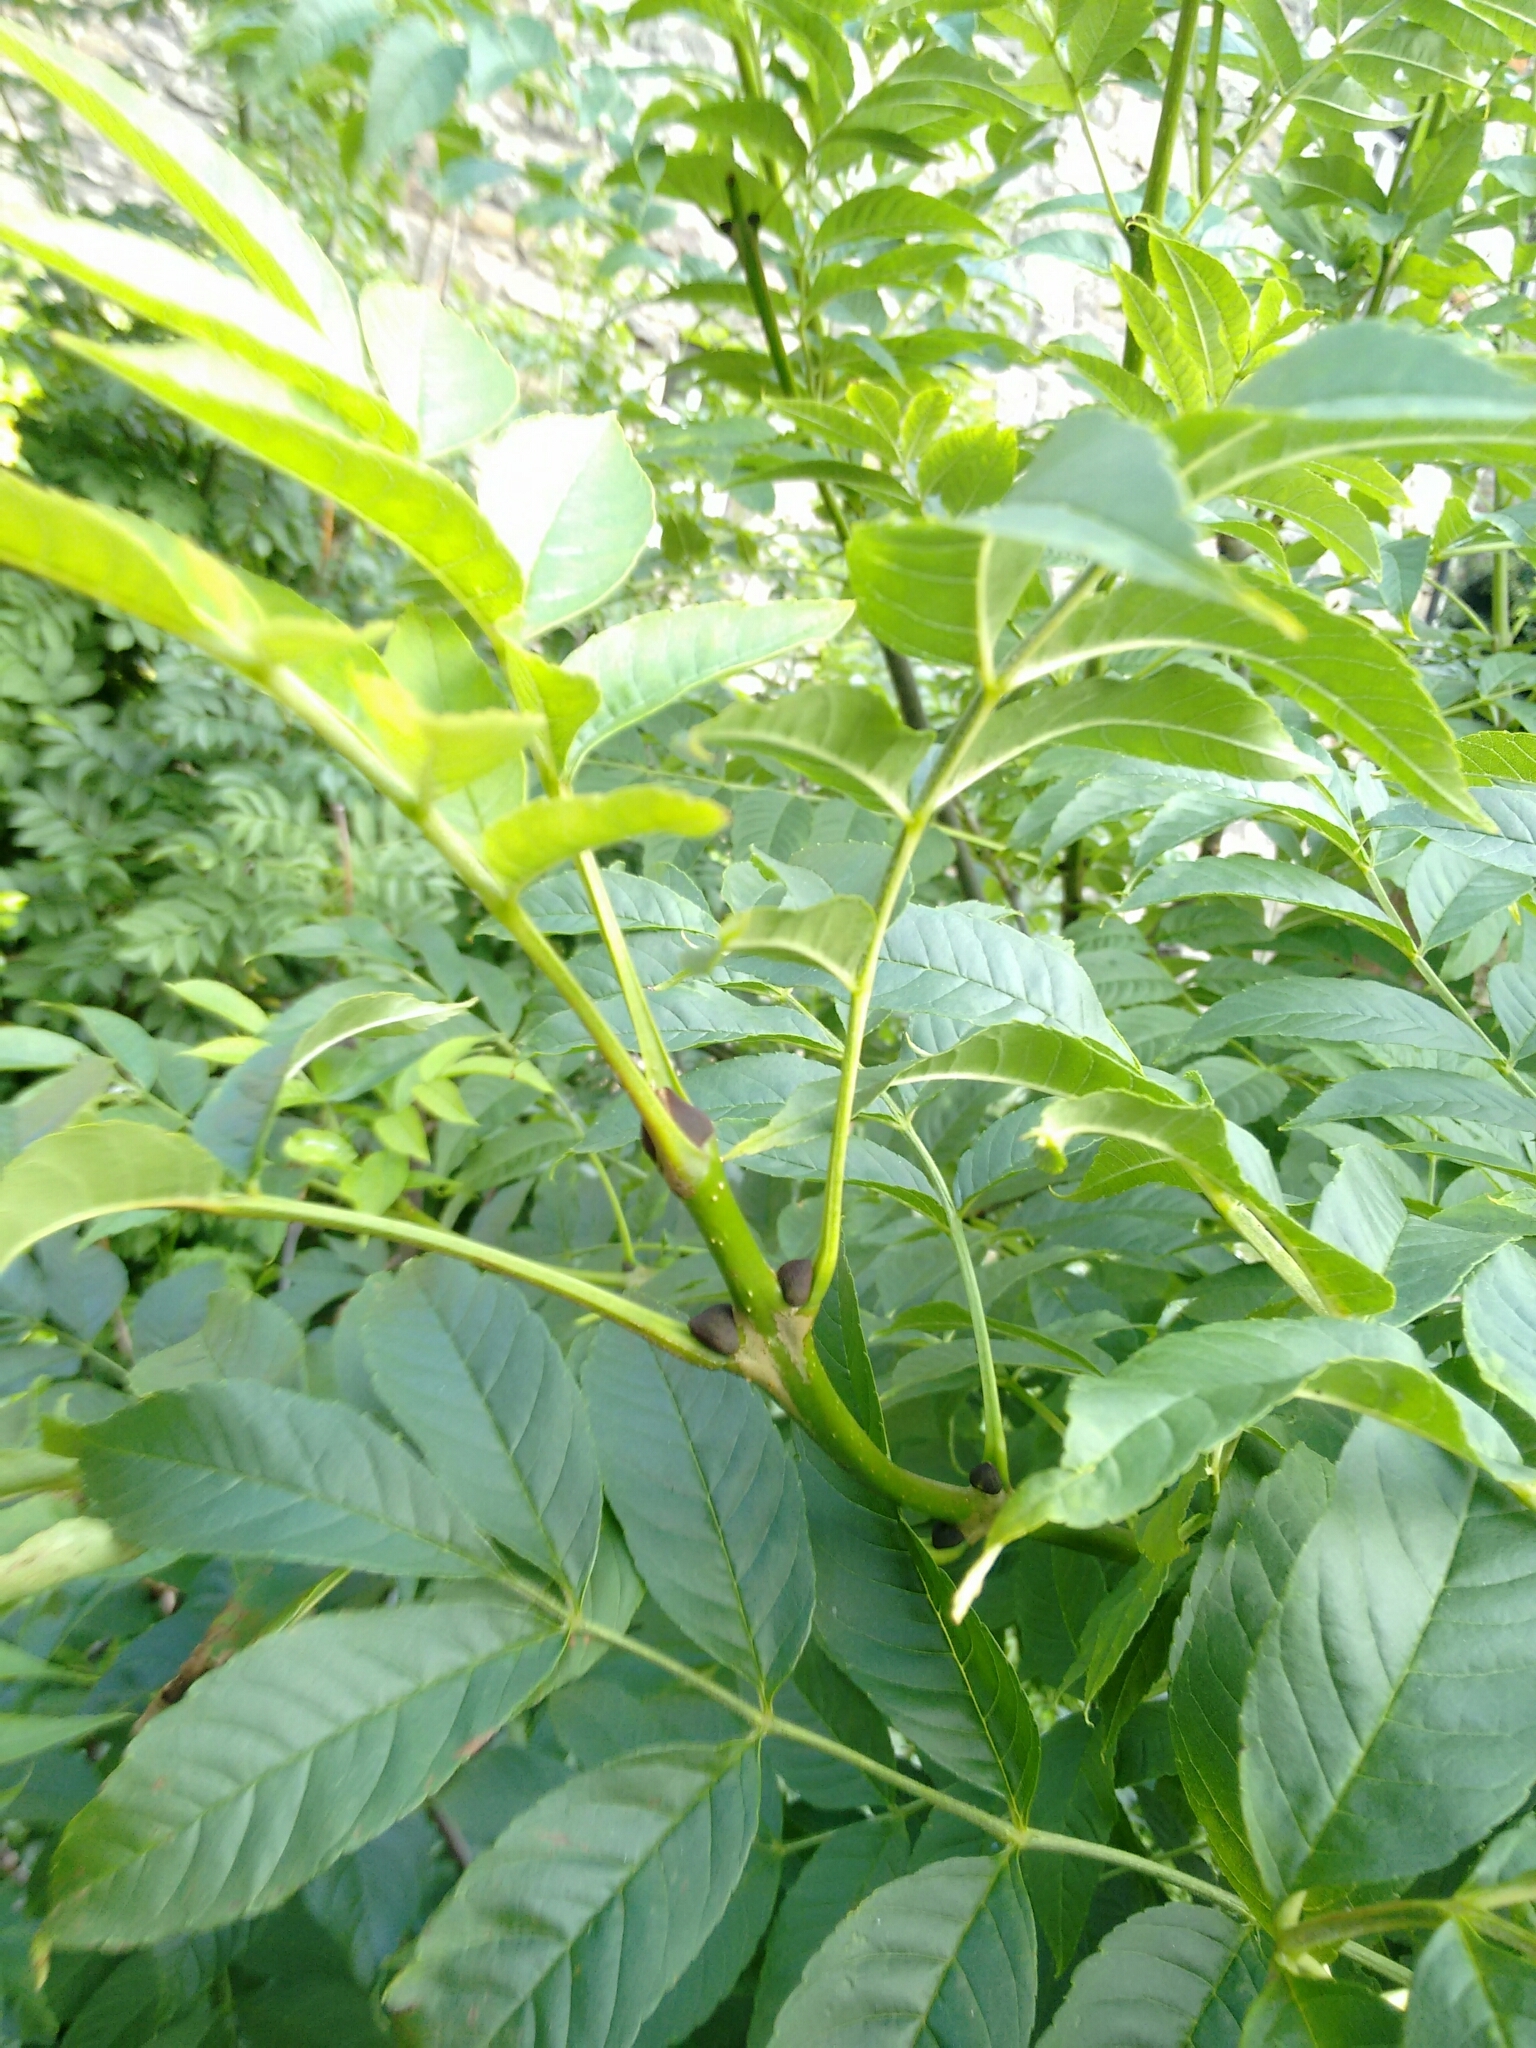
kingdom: Plantae
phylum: Tracheophyta
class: Magnoliopsida
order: Lamiales
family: Oleaceae
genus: Fraxinus
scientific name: Fraxinus excelsior
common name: European ash
